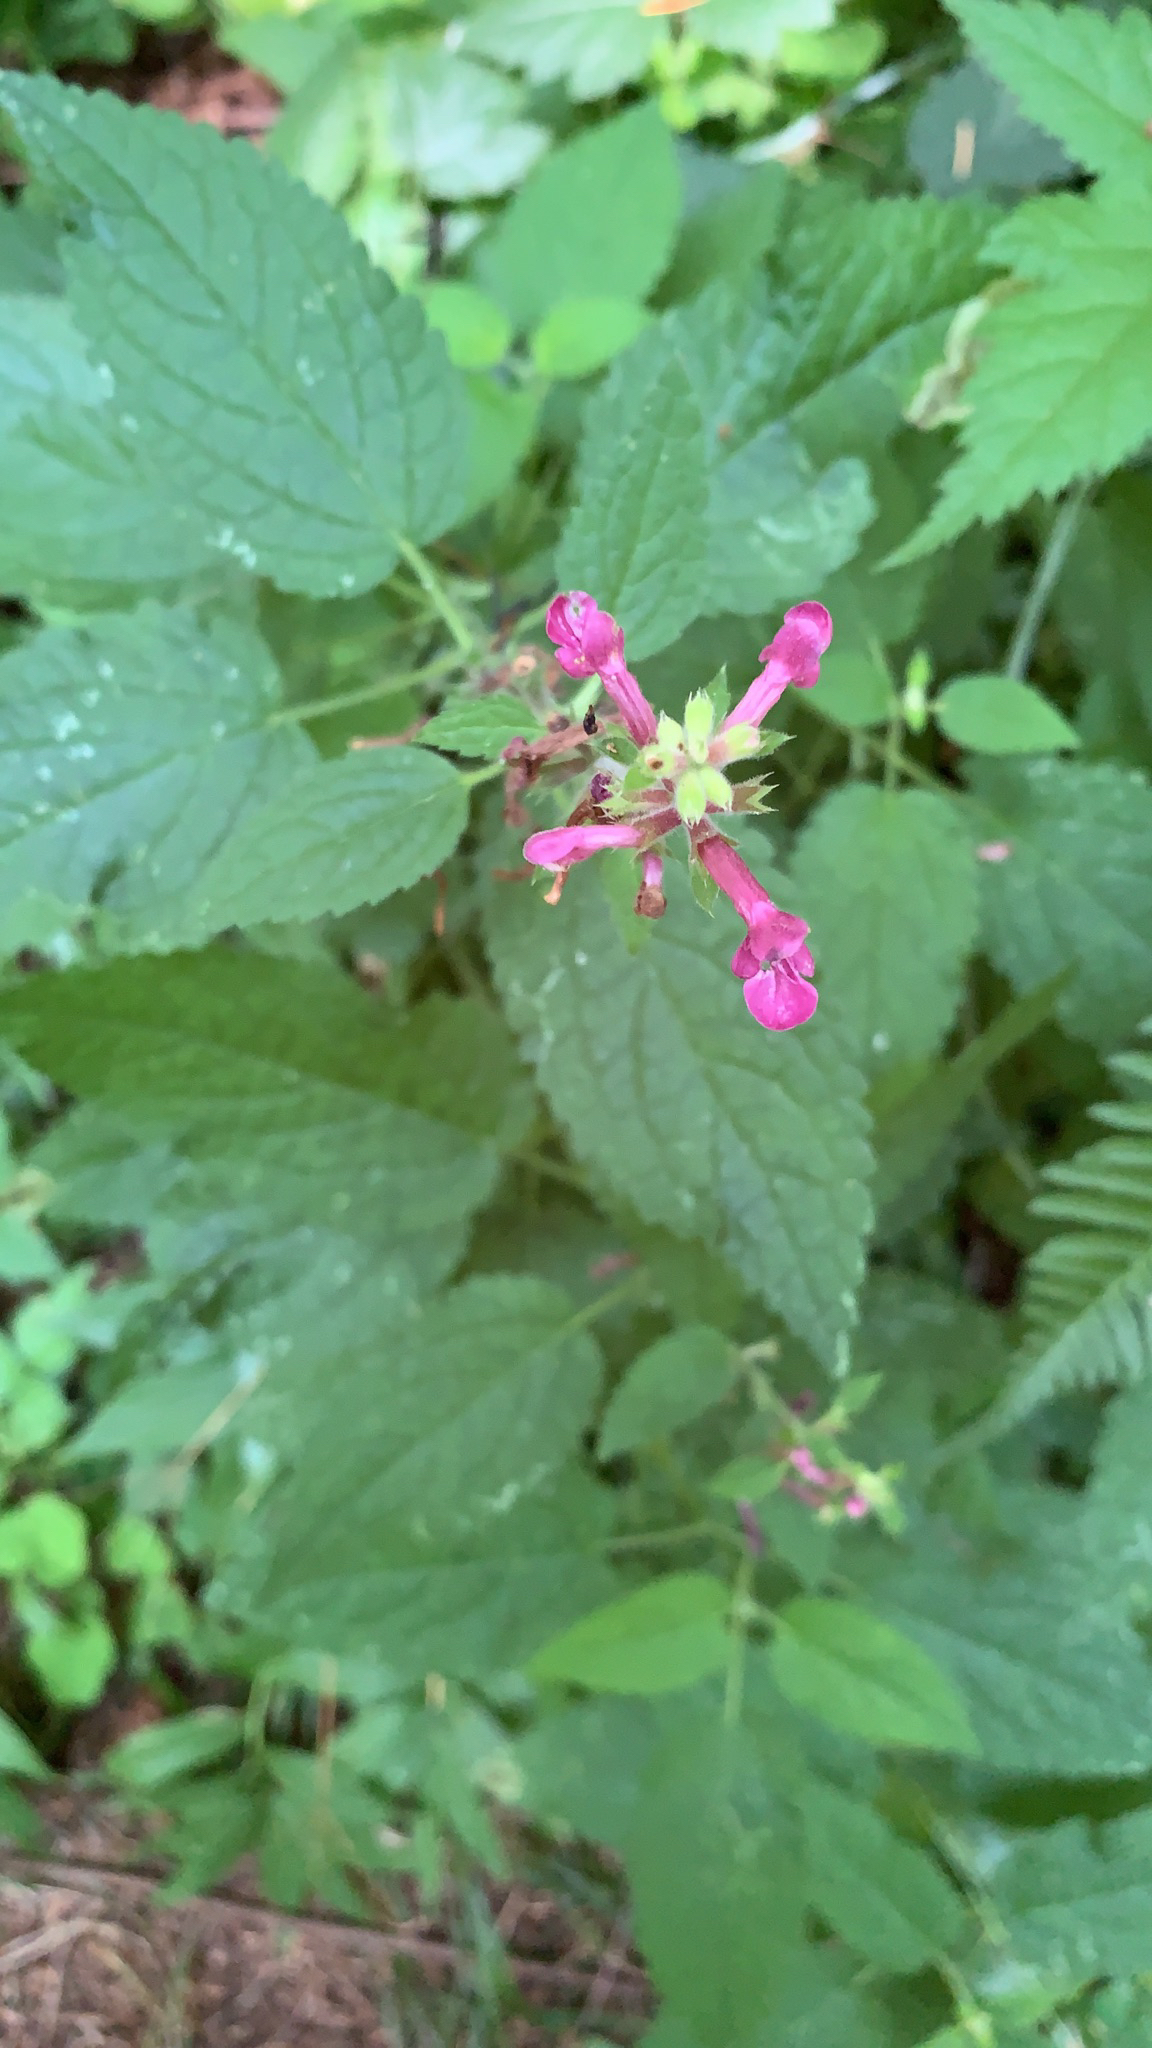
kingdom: Plantae
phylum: Tracheophyta
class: Magnoliopsida
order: Lamiales
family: Lamiaceae
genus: Stachys
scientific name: Stachys chamissonis
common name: Coastal hedge-nettle
